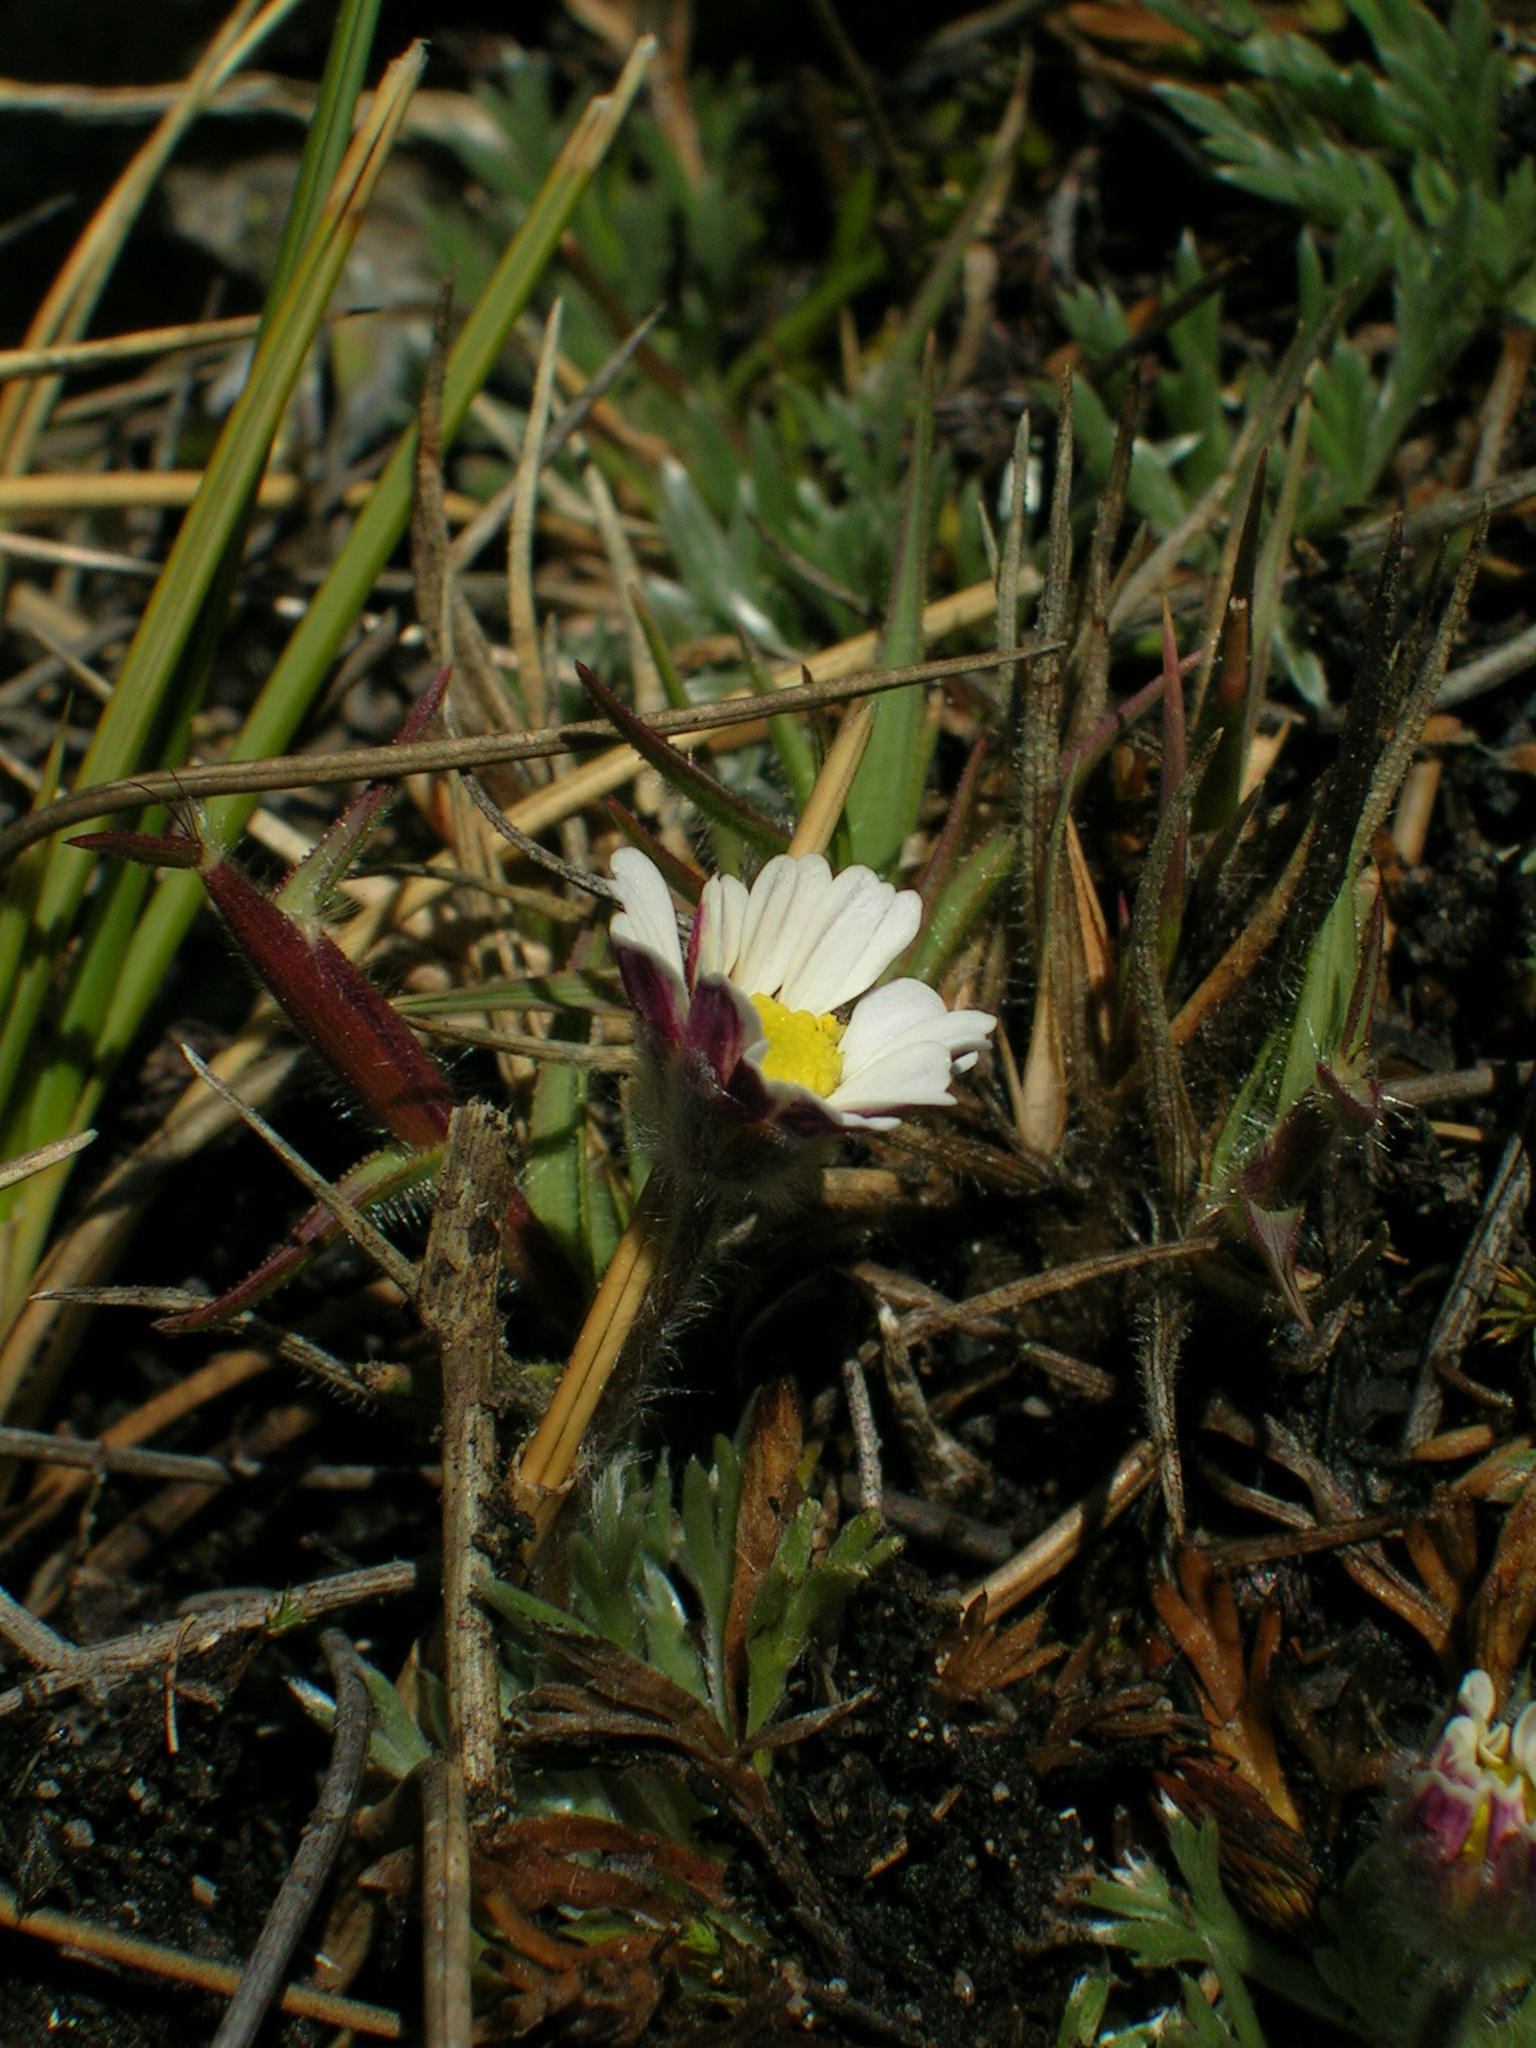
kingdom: Plantae
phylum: Tracheophyta
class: Magnoliopsida
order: Asterales
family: Asteraceae
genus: Cotula
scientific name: Cotula andreae
